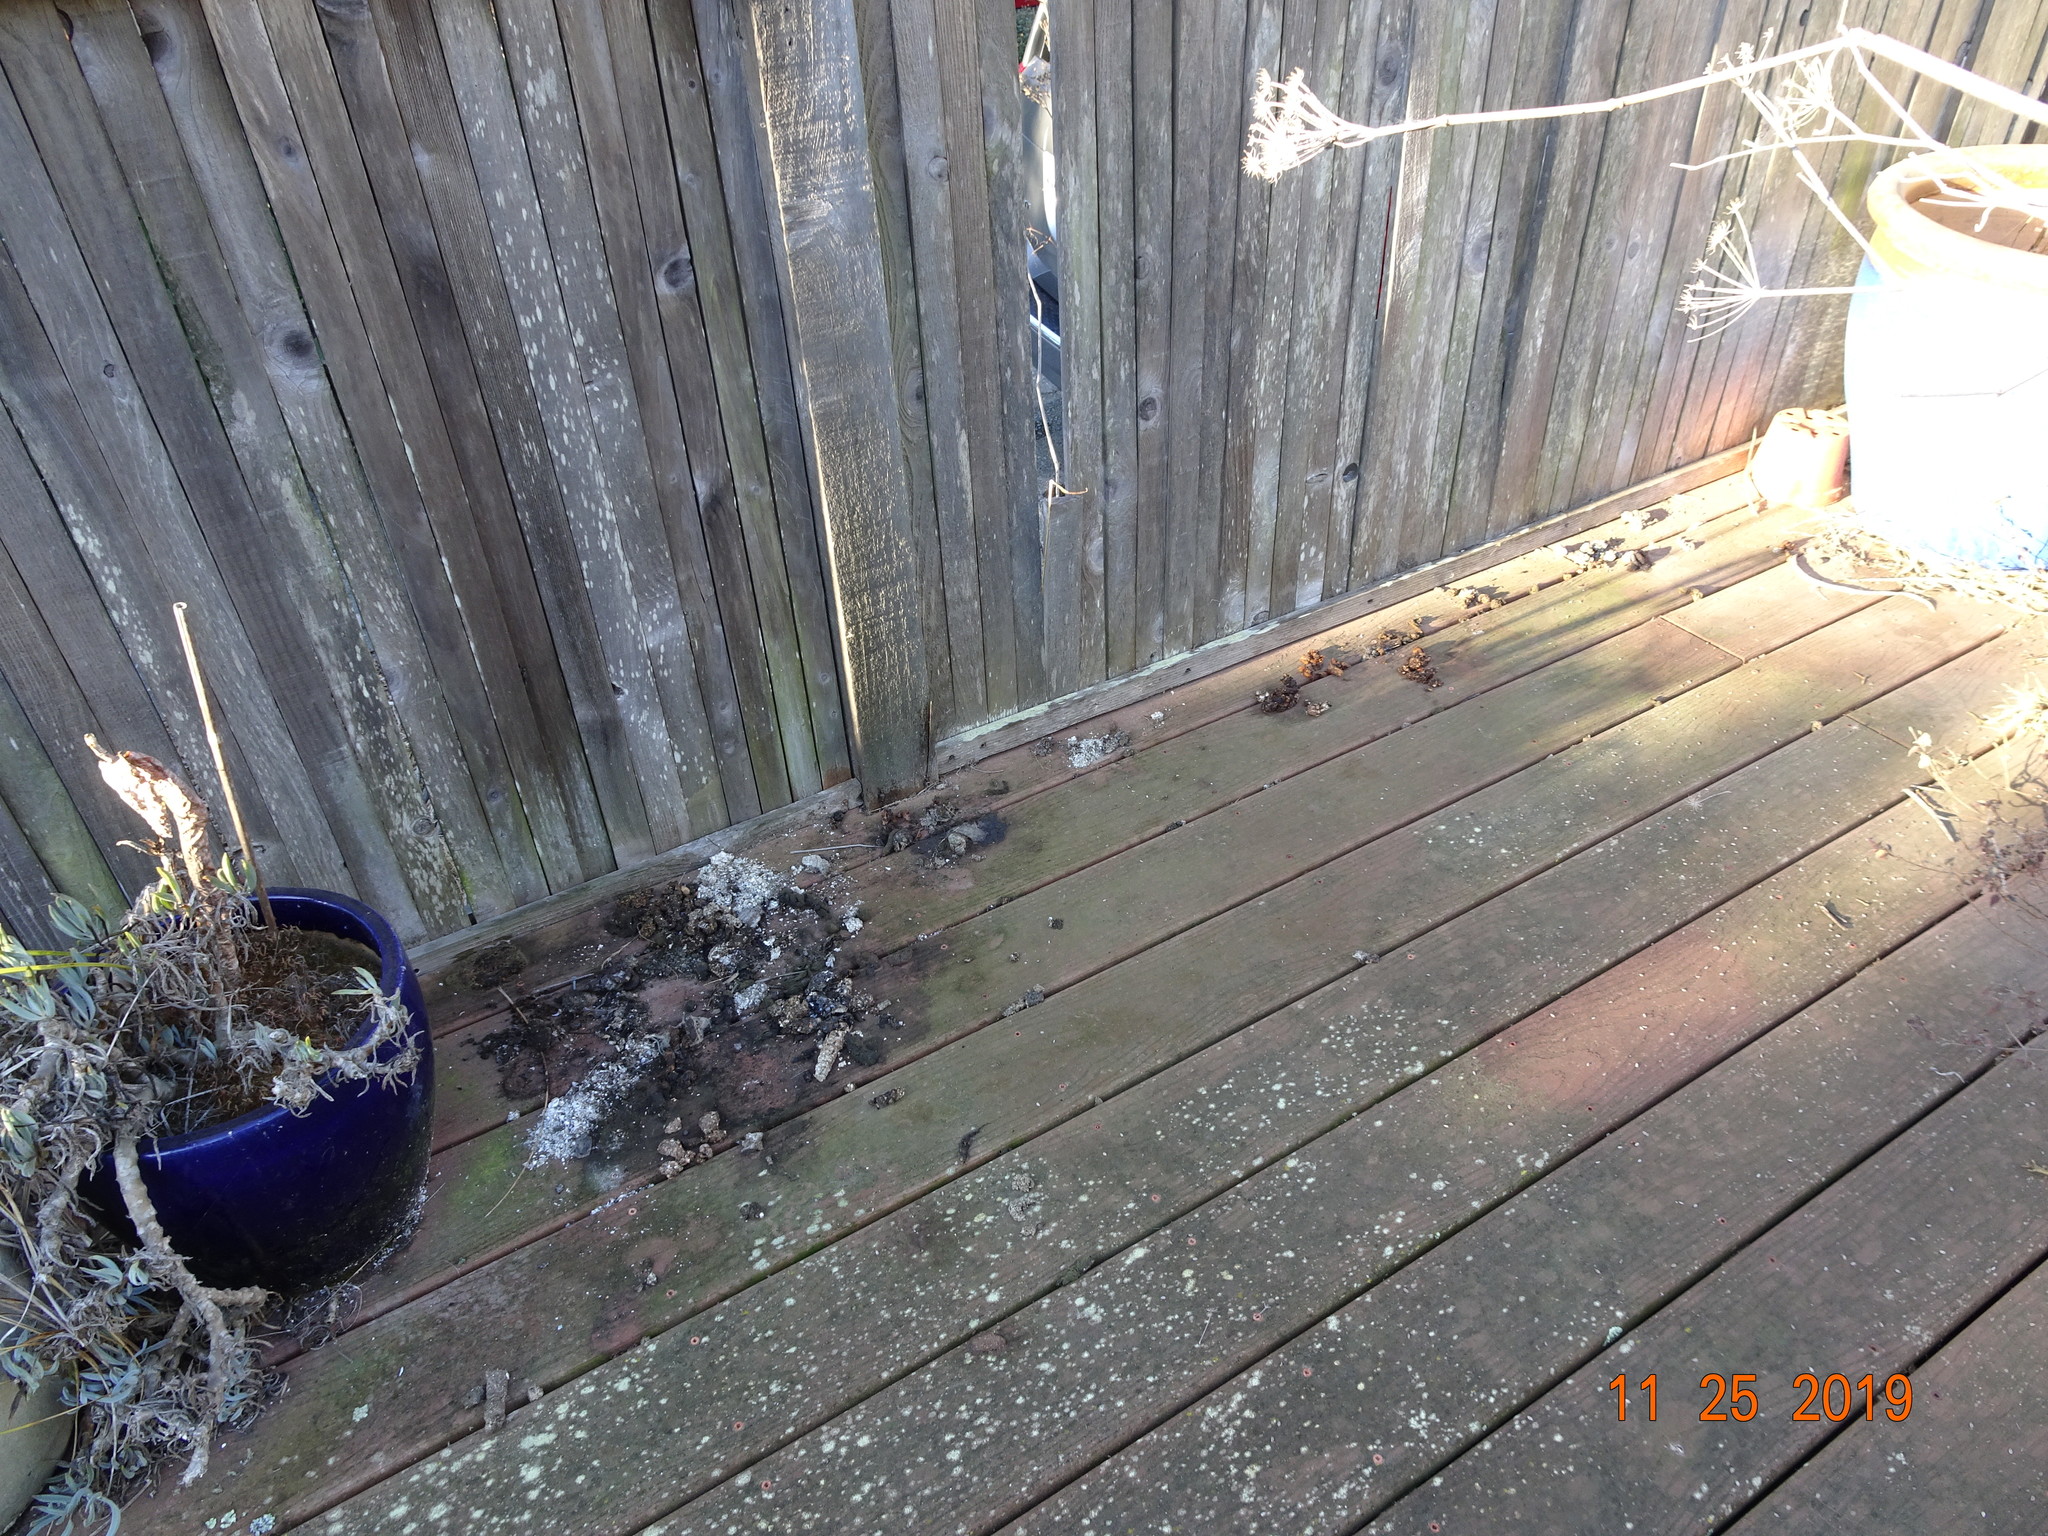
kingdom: Animalia
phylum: Chordata
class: Mammalia
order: Carnivora
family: Procyonidae
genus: Procyon
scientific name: Procyon lotor
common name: Raccoon
